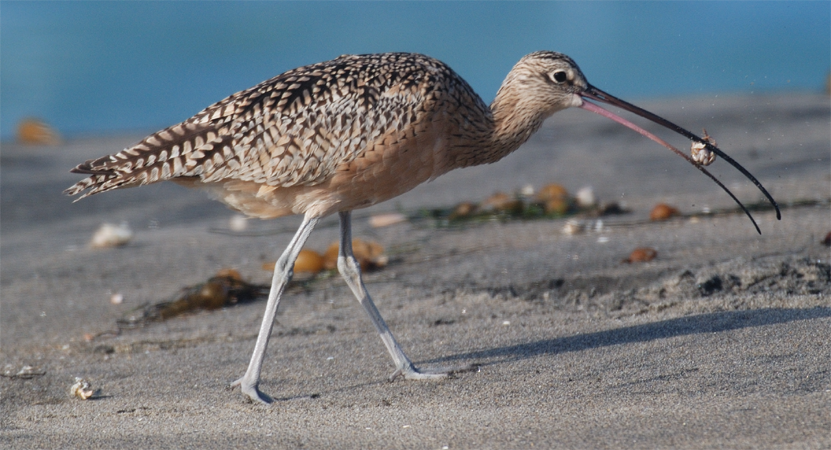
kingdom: Animalia
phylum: Chordata
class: Aves
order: Charadriiformes
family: Scolopacidae
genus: Numenius
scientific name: Numenius americanus
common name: Long-billed curlew
